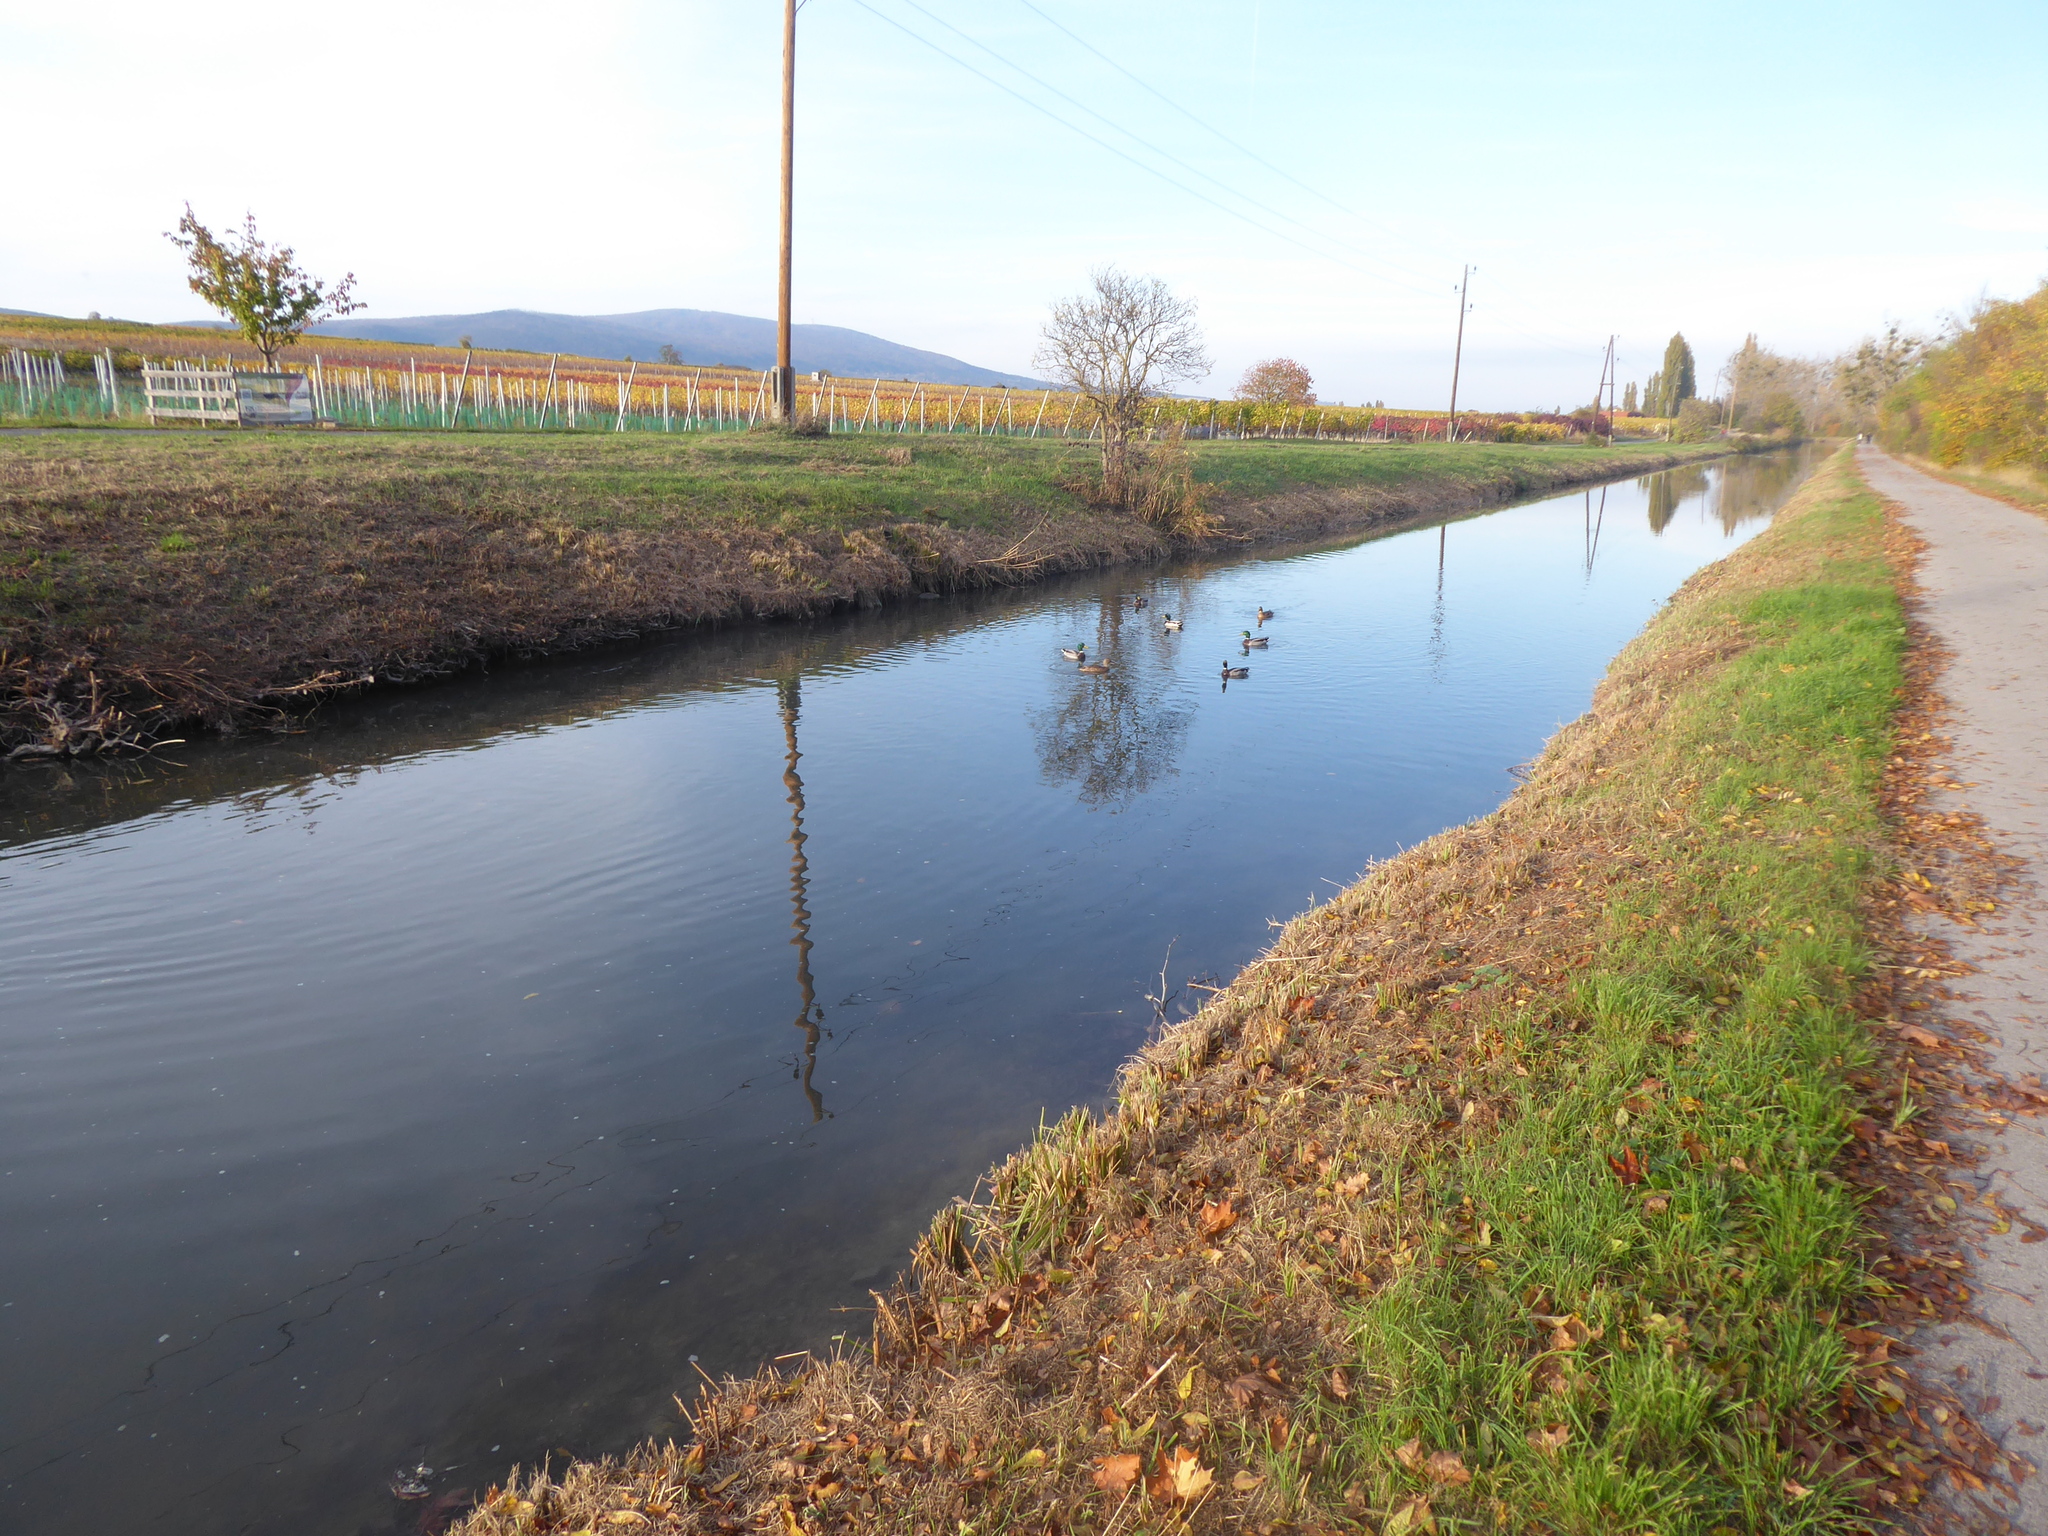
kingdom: Animalia
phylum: Chordata
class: Aves
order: Anseriformes
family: Anatidae
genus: Anas
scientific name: Anas platyrhynchos
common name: Mallard
